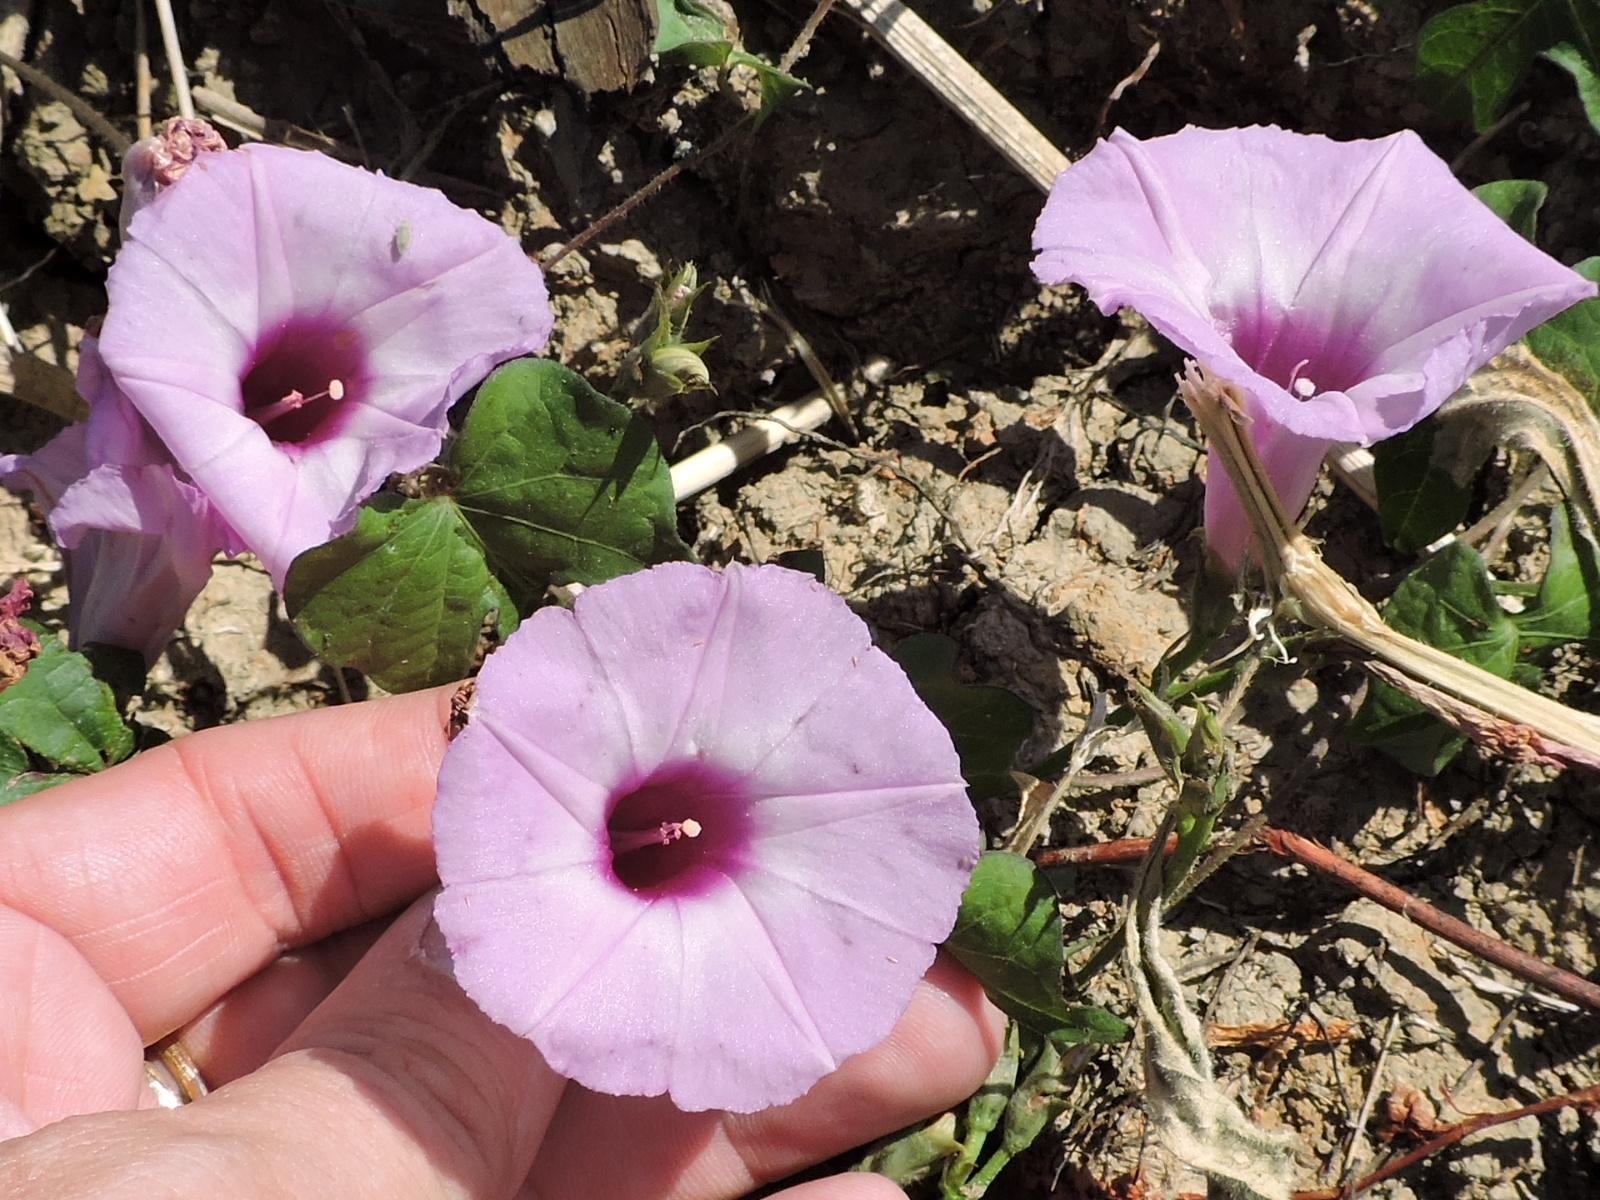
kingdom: Plantae
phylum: Tracheophyta
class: Magnoliopsida
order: Solanales
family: Convolvulaceae
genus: Ipomoea
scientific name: Ipomoea cordatotriloba
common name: Cotton morning glory
